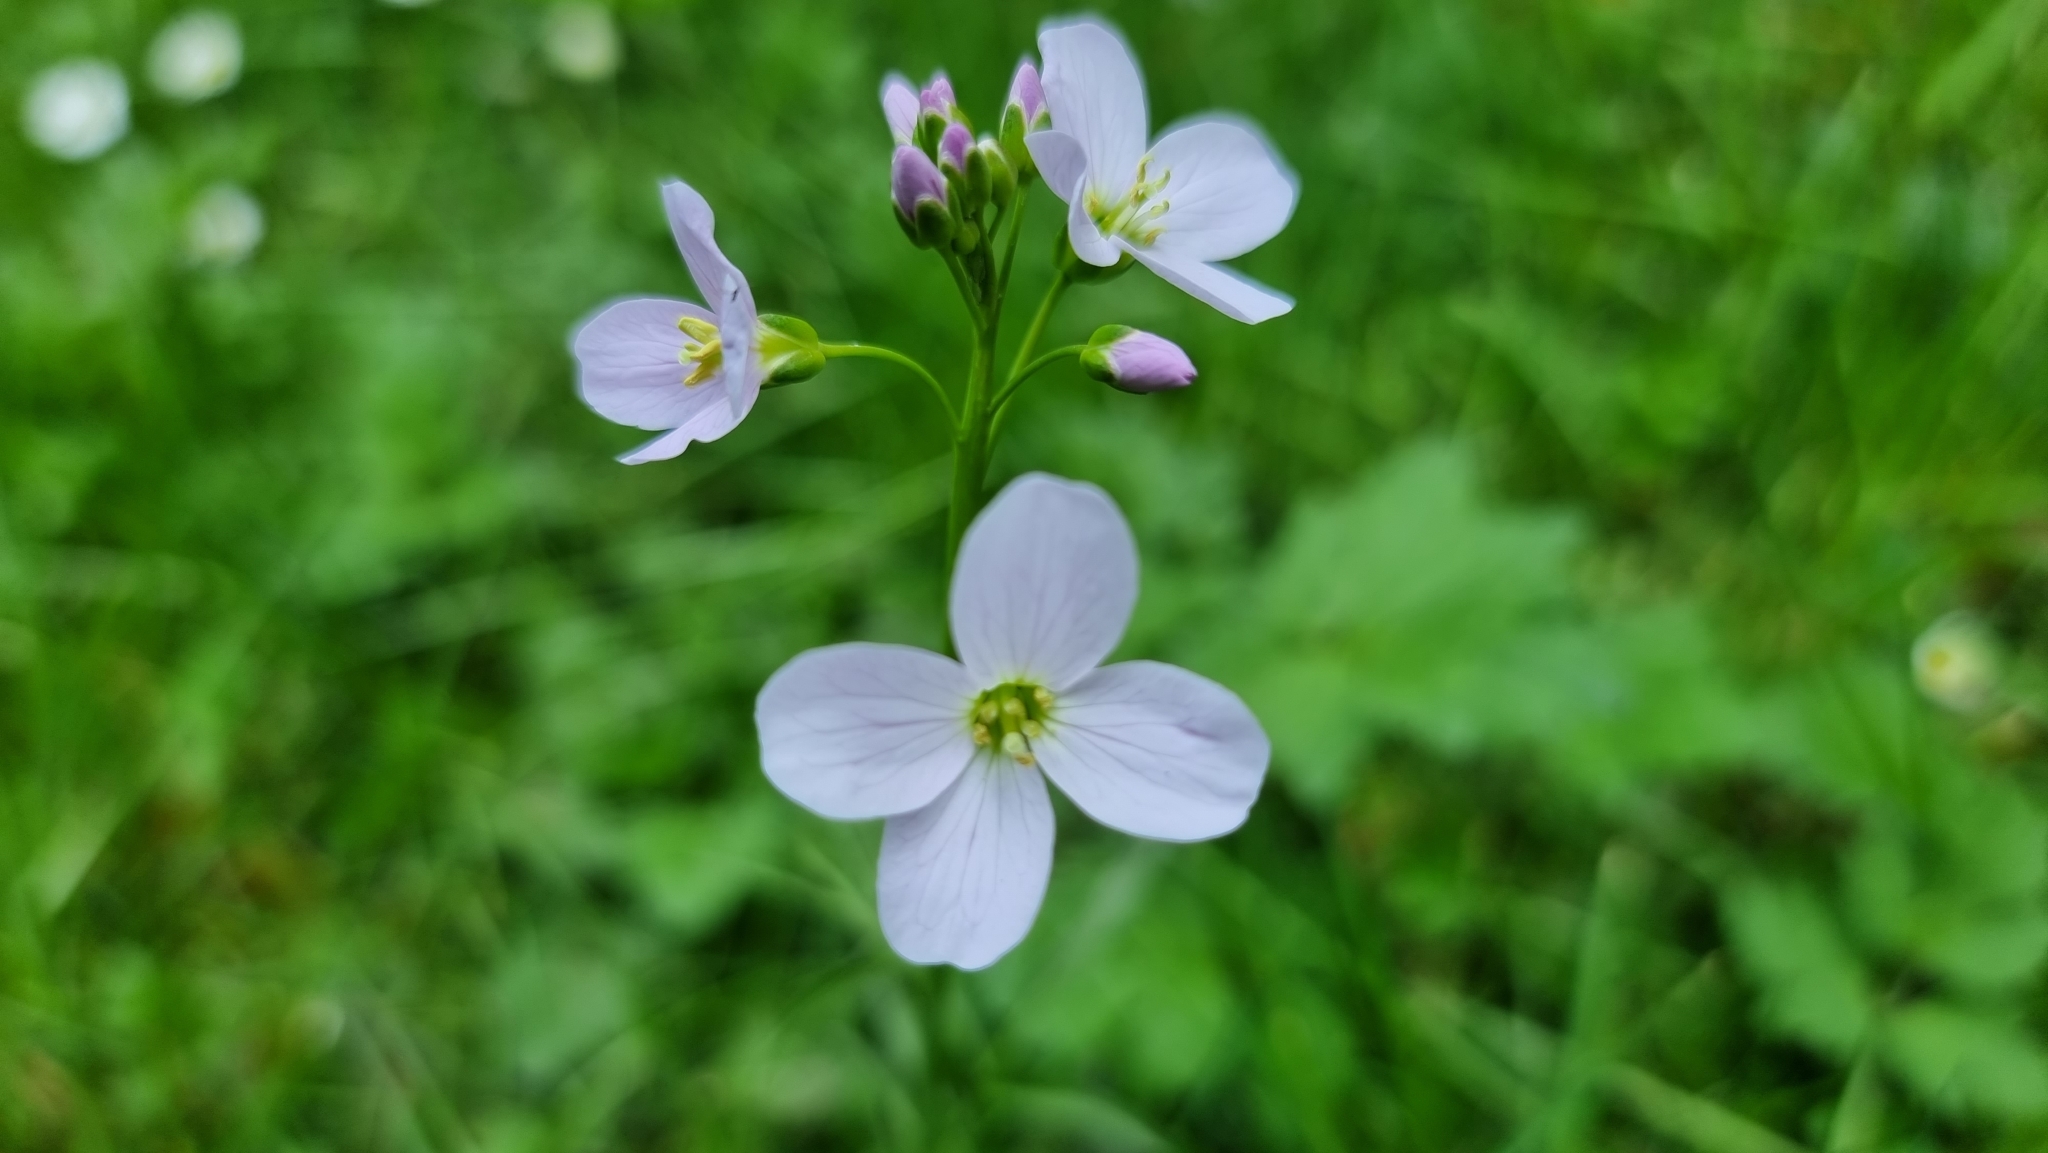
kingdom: Plantae
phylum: Tracheophyta
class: Magnoliopsida
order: Brassicales
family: Brassicaceae
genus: Cardamine
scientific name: Cardamine pratensis
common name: Cuckoo flower
